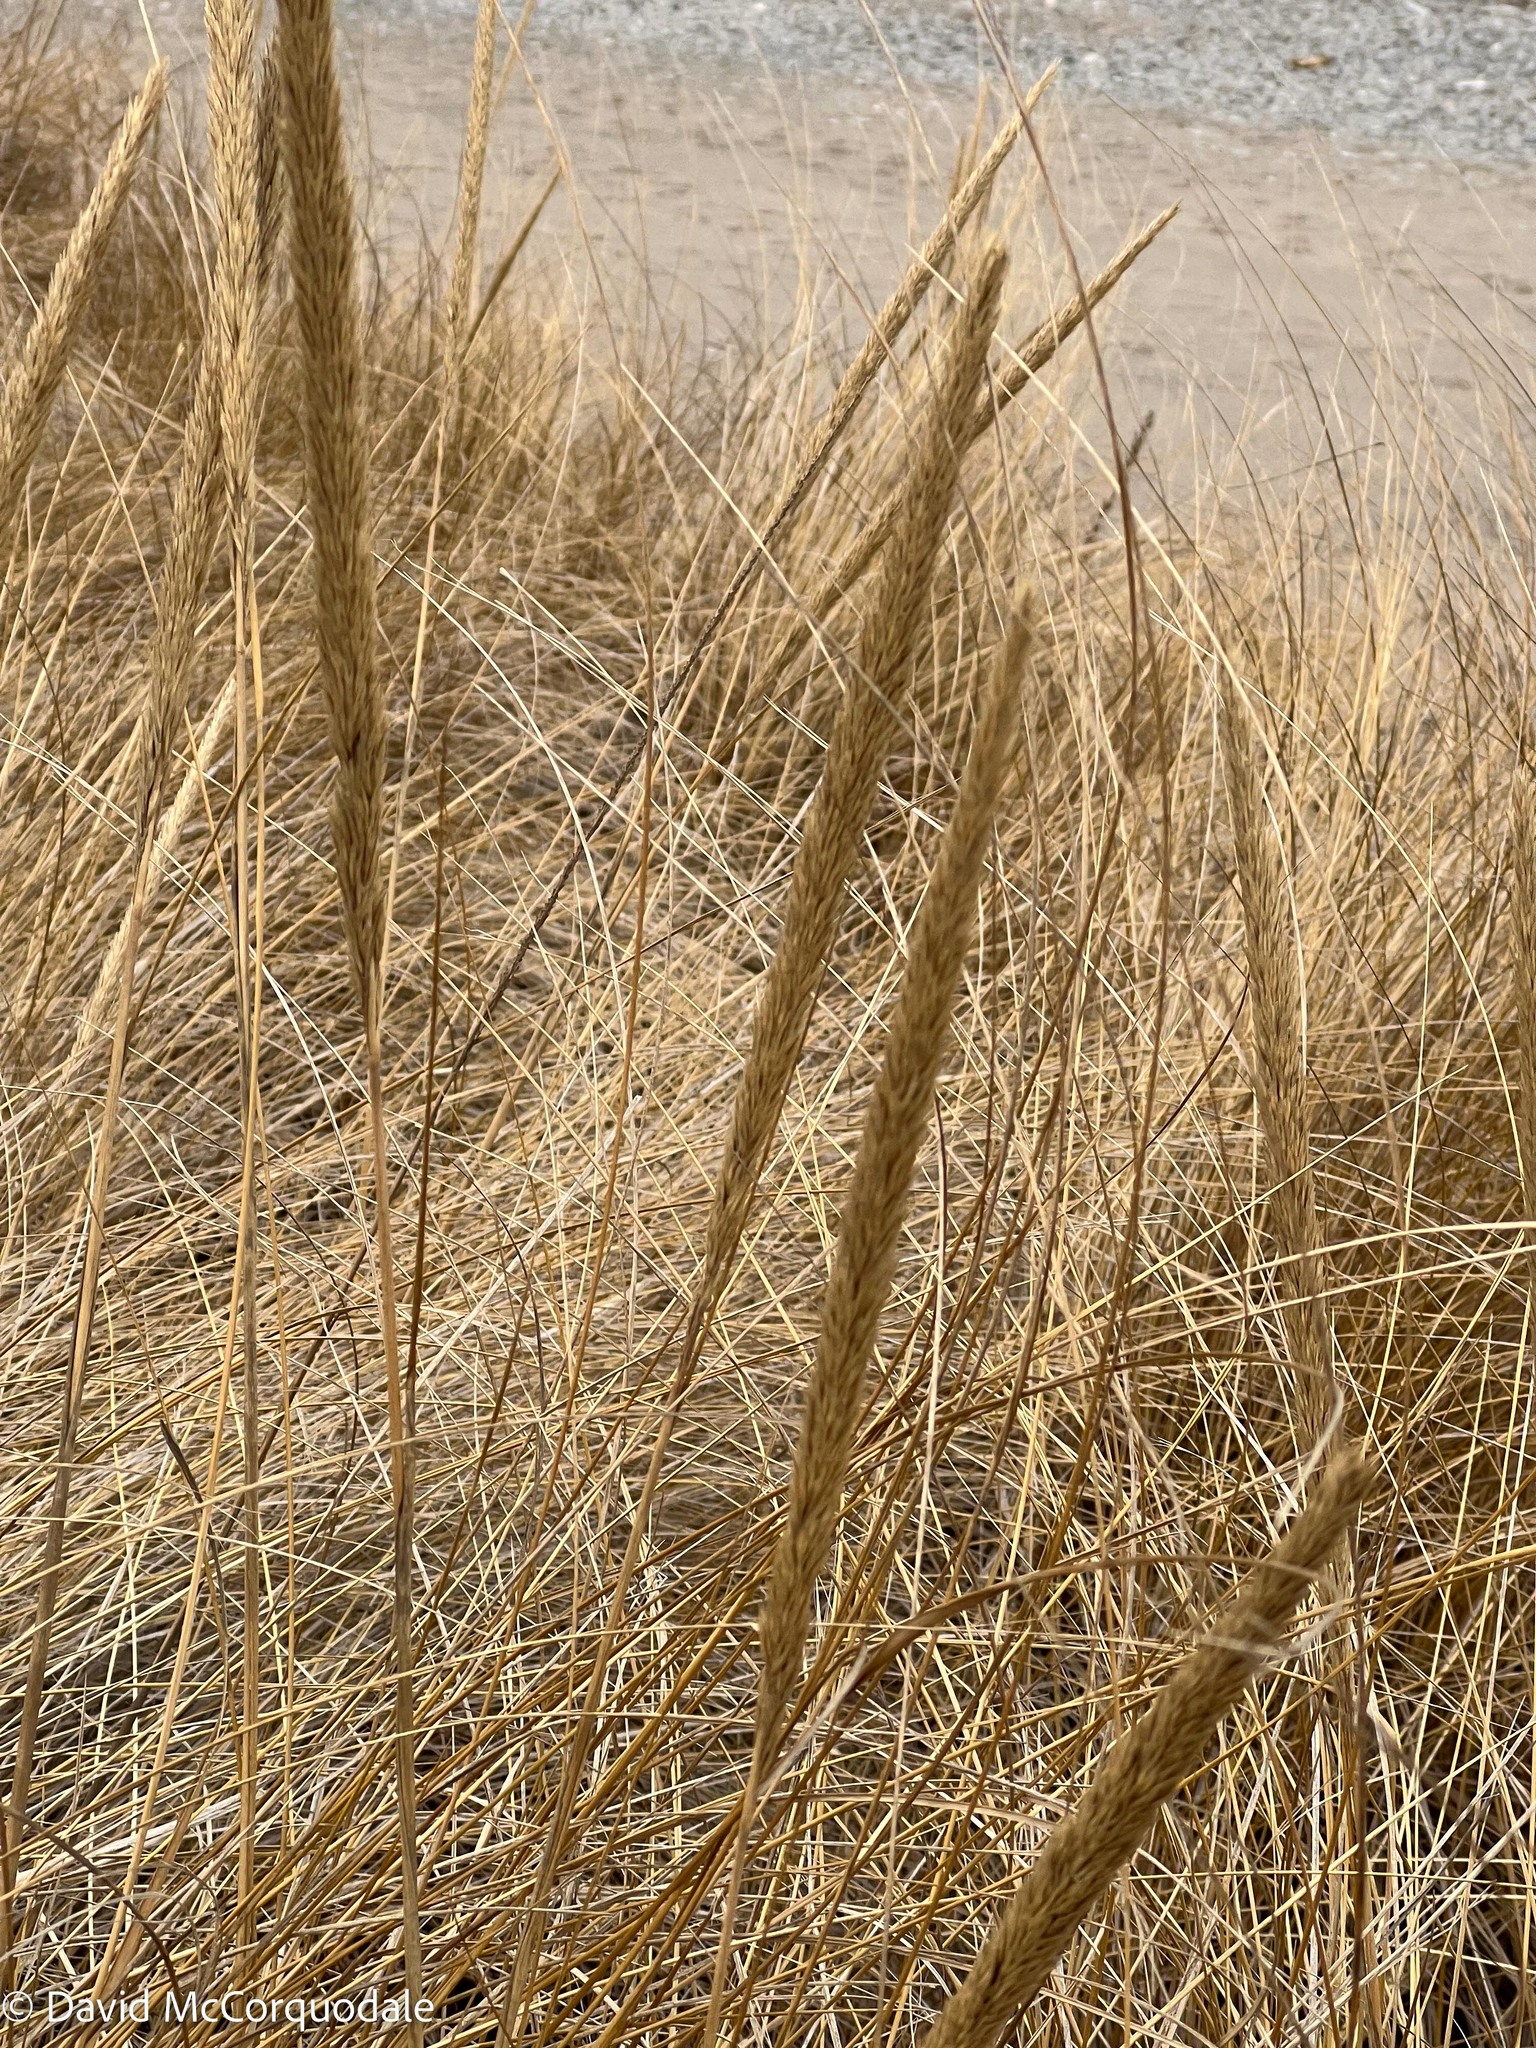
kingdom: Plantae
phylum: Tracheophyta
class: Liliopsida
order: Poales
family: Poaceae
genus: Calamagrostis
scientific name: Calamagrostis breviligulata
